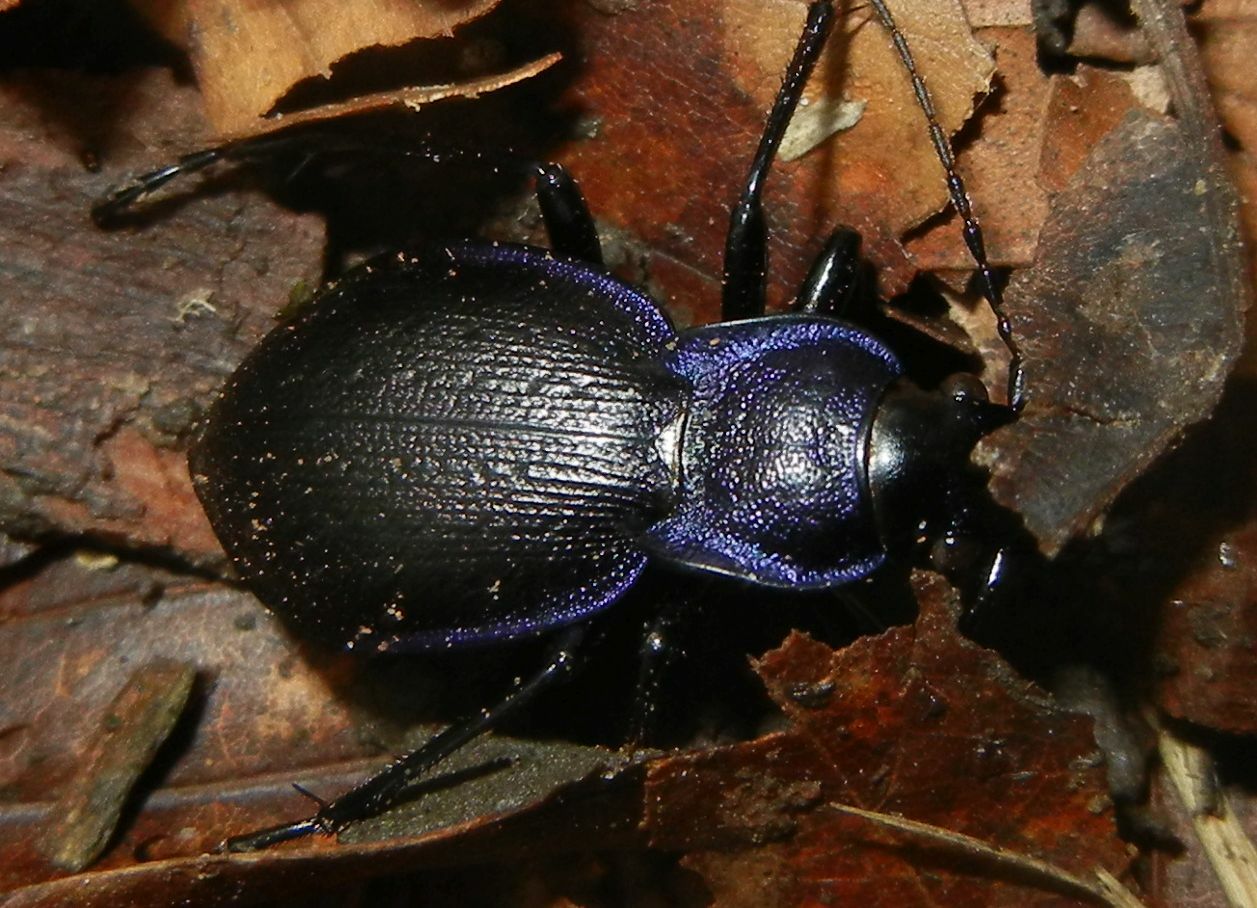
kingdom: Animalia
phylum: Arthropoda
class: Insecta
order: Coleoptera
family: Carabidae
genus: Carabus
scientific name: Carabus problematicus
